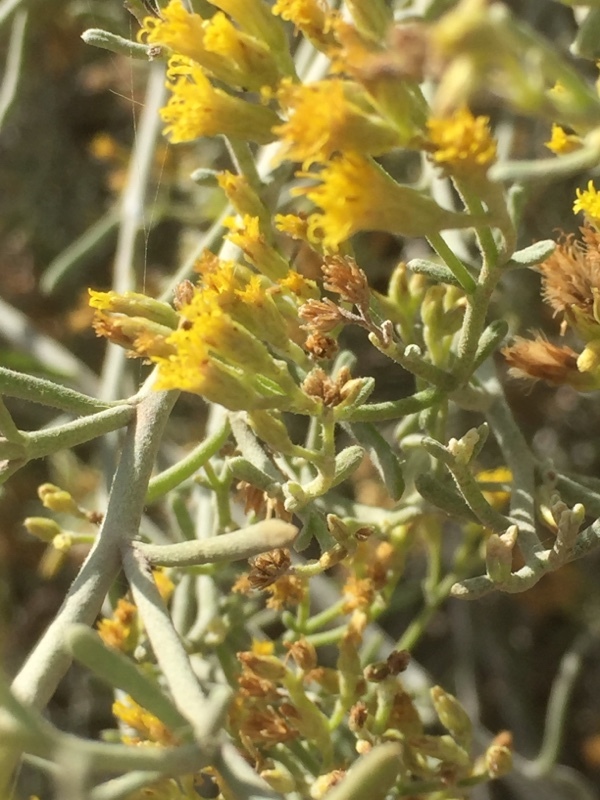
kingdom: Plantae
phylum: Tracheophyta
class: Magnoliopsida
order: Asterales
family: Asteraceae
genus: Schizogyne
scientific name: Schizogyne sericea
